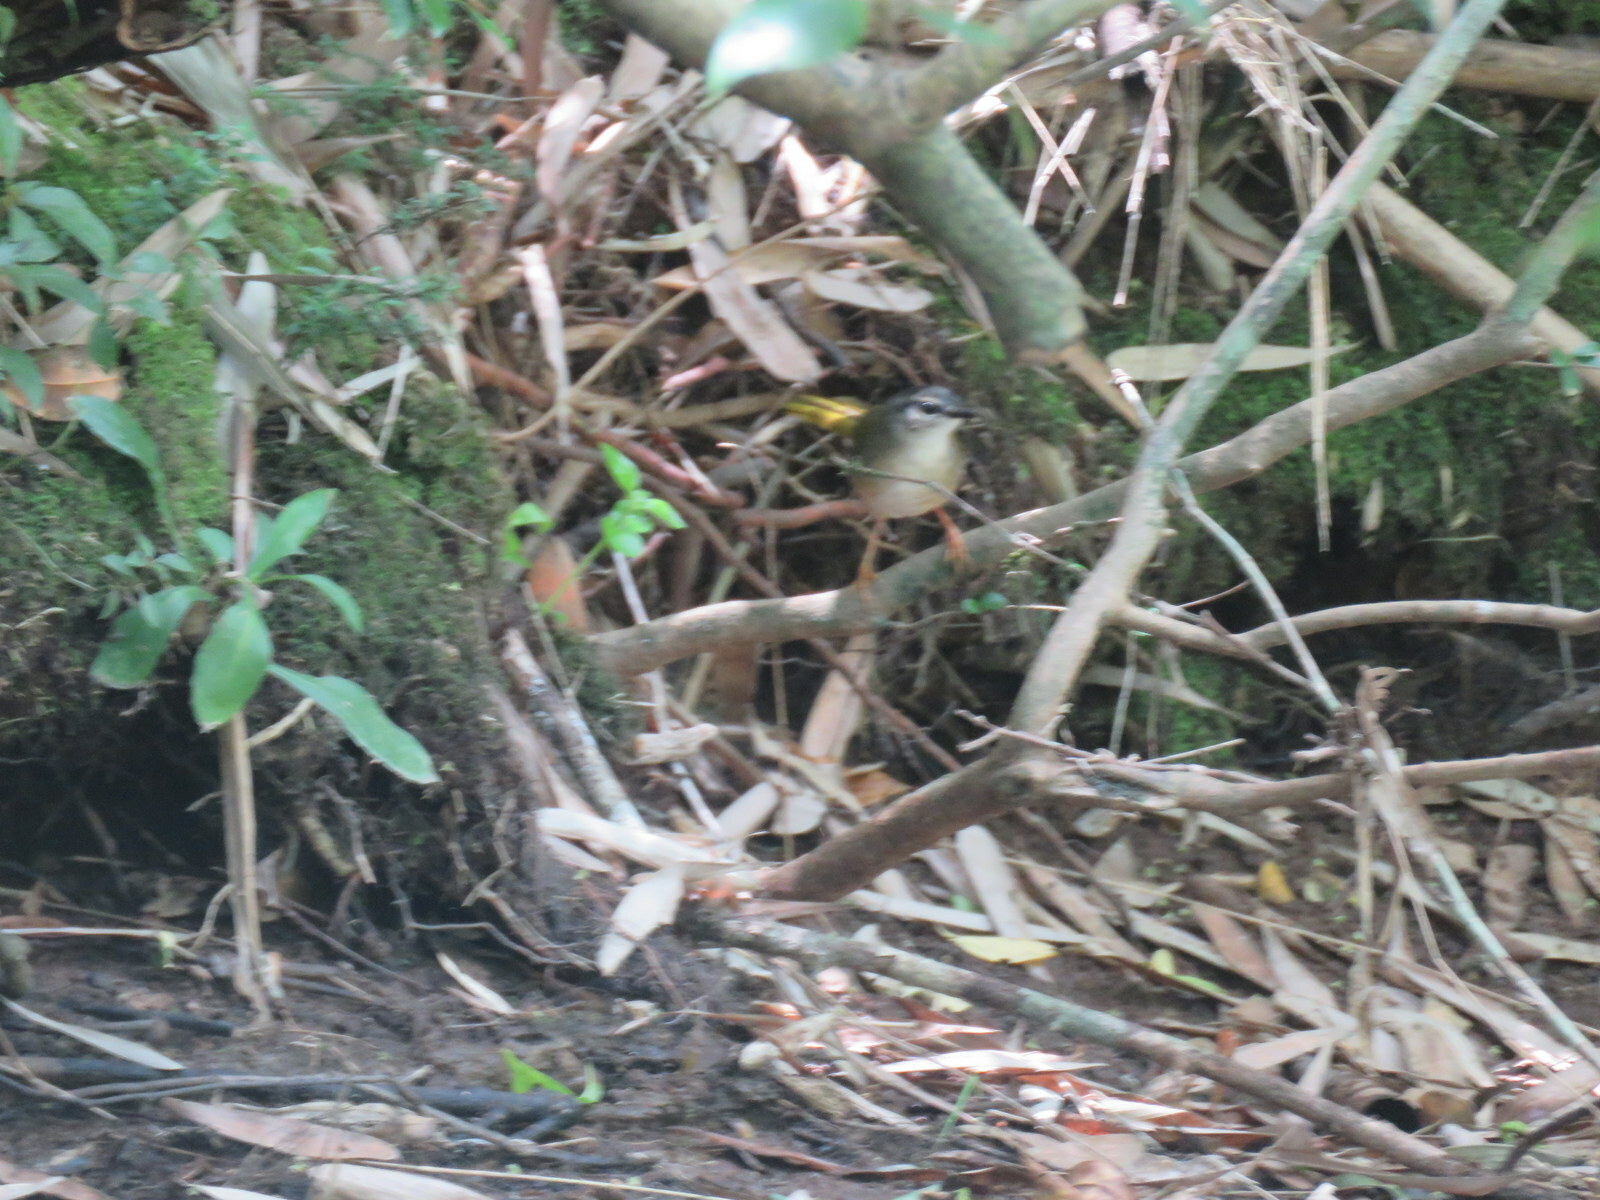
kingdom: Animalia
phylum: Chordata
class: Aves
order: Passeriformes
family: Parulidae
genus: Myiothlypis
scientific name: Myiothlypis rivularis
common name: Riverbank warbler
